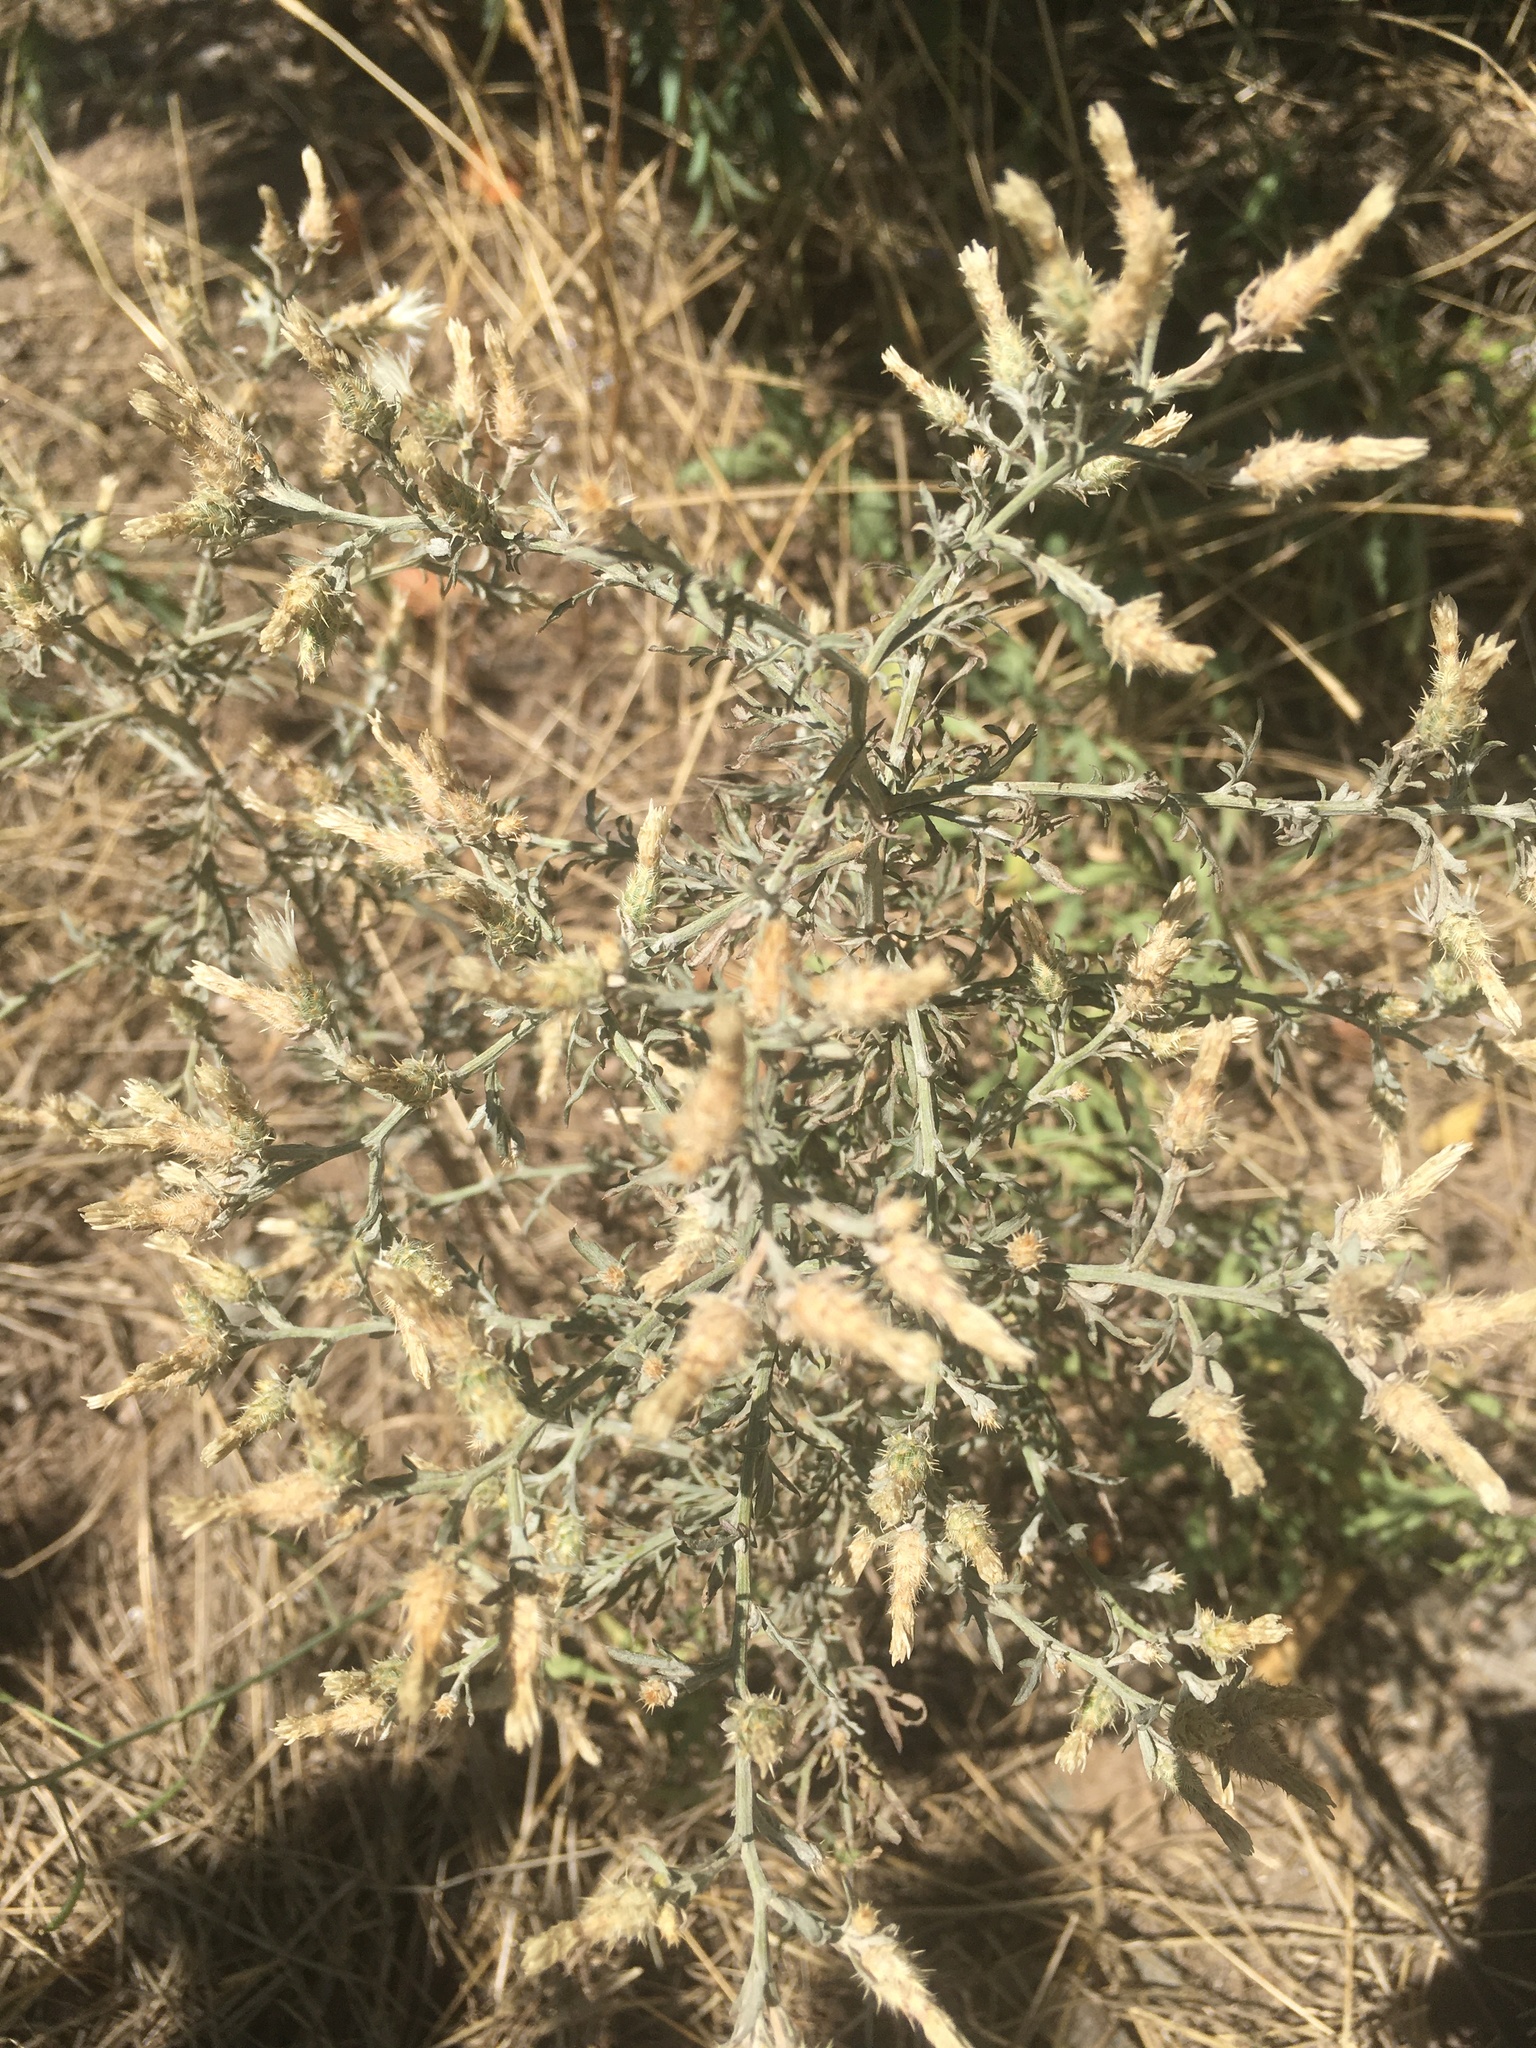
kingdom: Plantae
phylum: Tracheophyta
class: Magnoliopsida
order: Asterales
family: Asteraceae
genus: Centaurea
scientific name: Centaurea diffusa
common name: Diffuse knapweed
